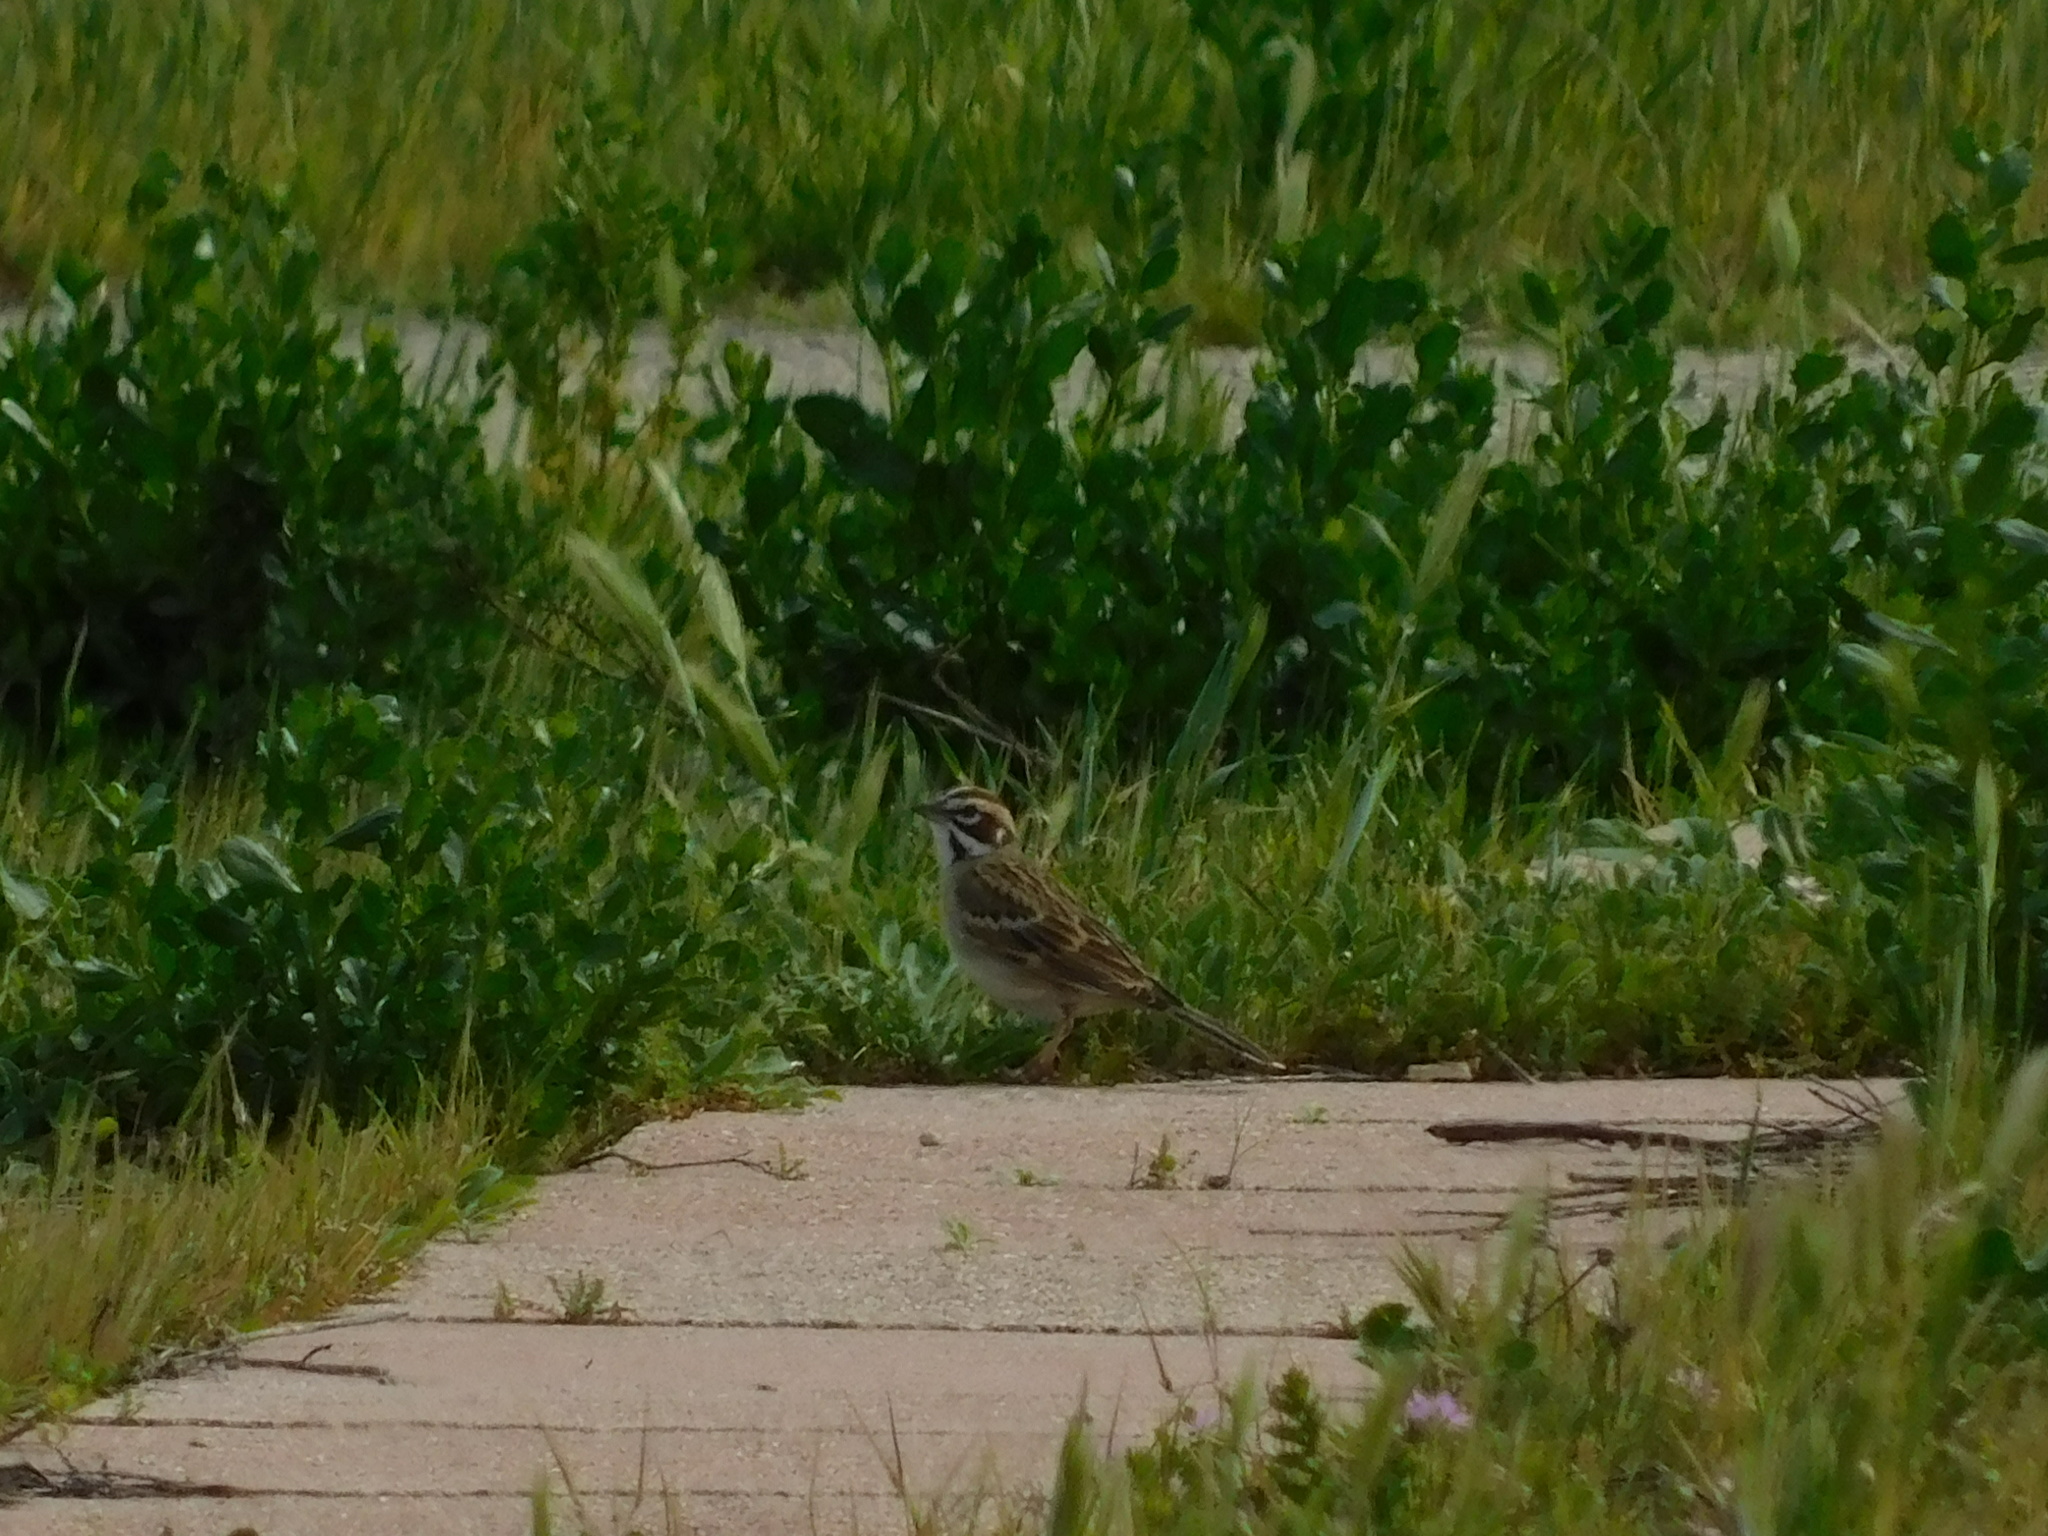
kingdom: Animalia
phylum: Chordata
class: Aves
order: Passeriformes
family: Passerellidae
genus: Chondestes
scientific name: Chondestes grammacus
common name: Lark sparrow
